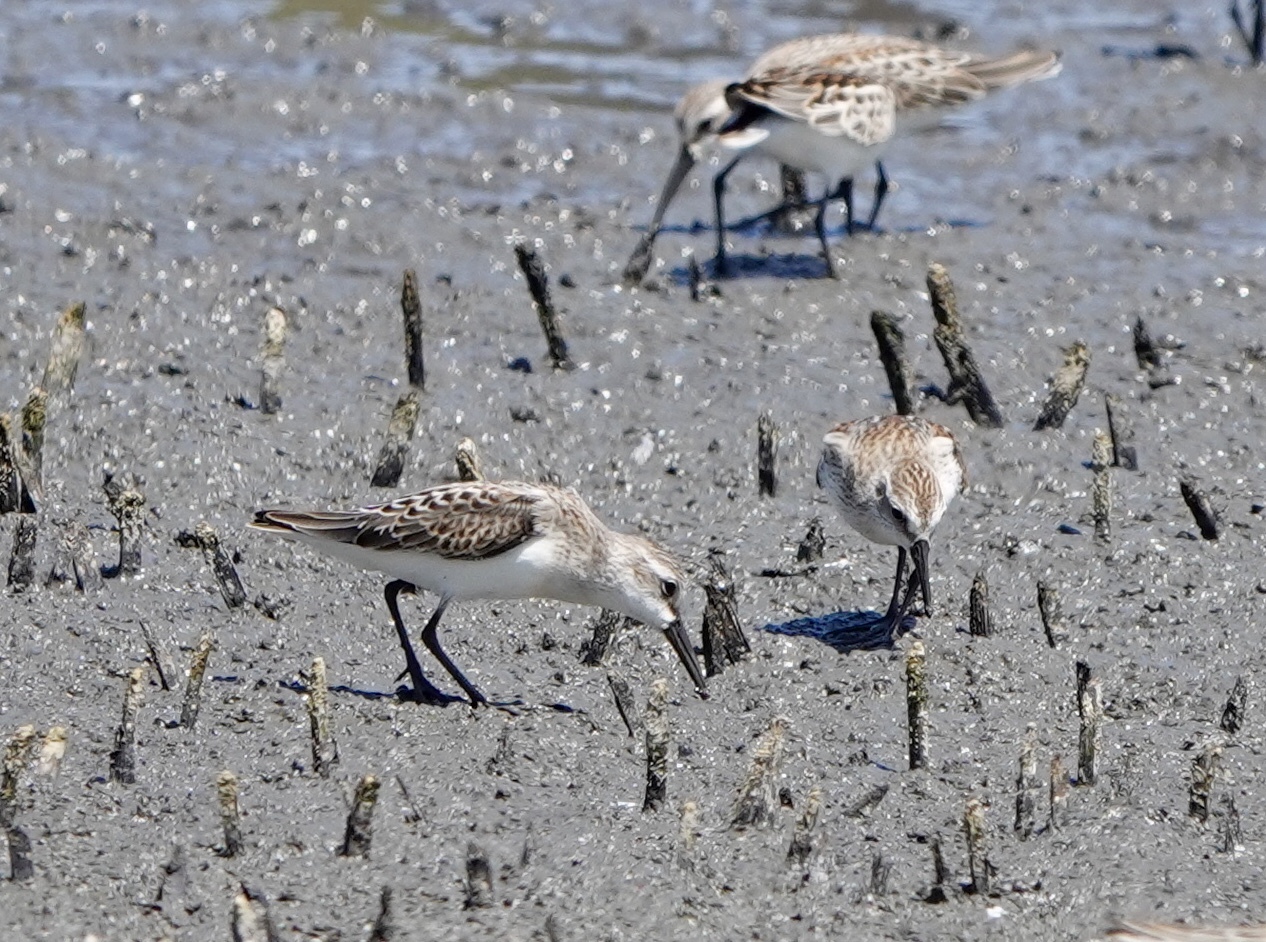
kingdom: Animalia
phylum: Chordata
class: Aves
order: Charadriiformes
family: Scolopacidae
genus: Calidris
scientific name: Calidris mauri
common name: Western sandpiper
